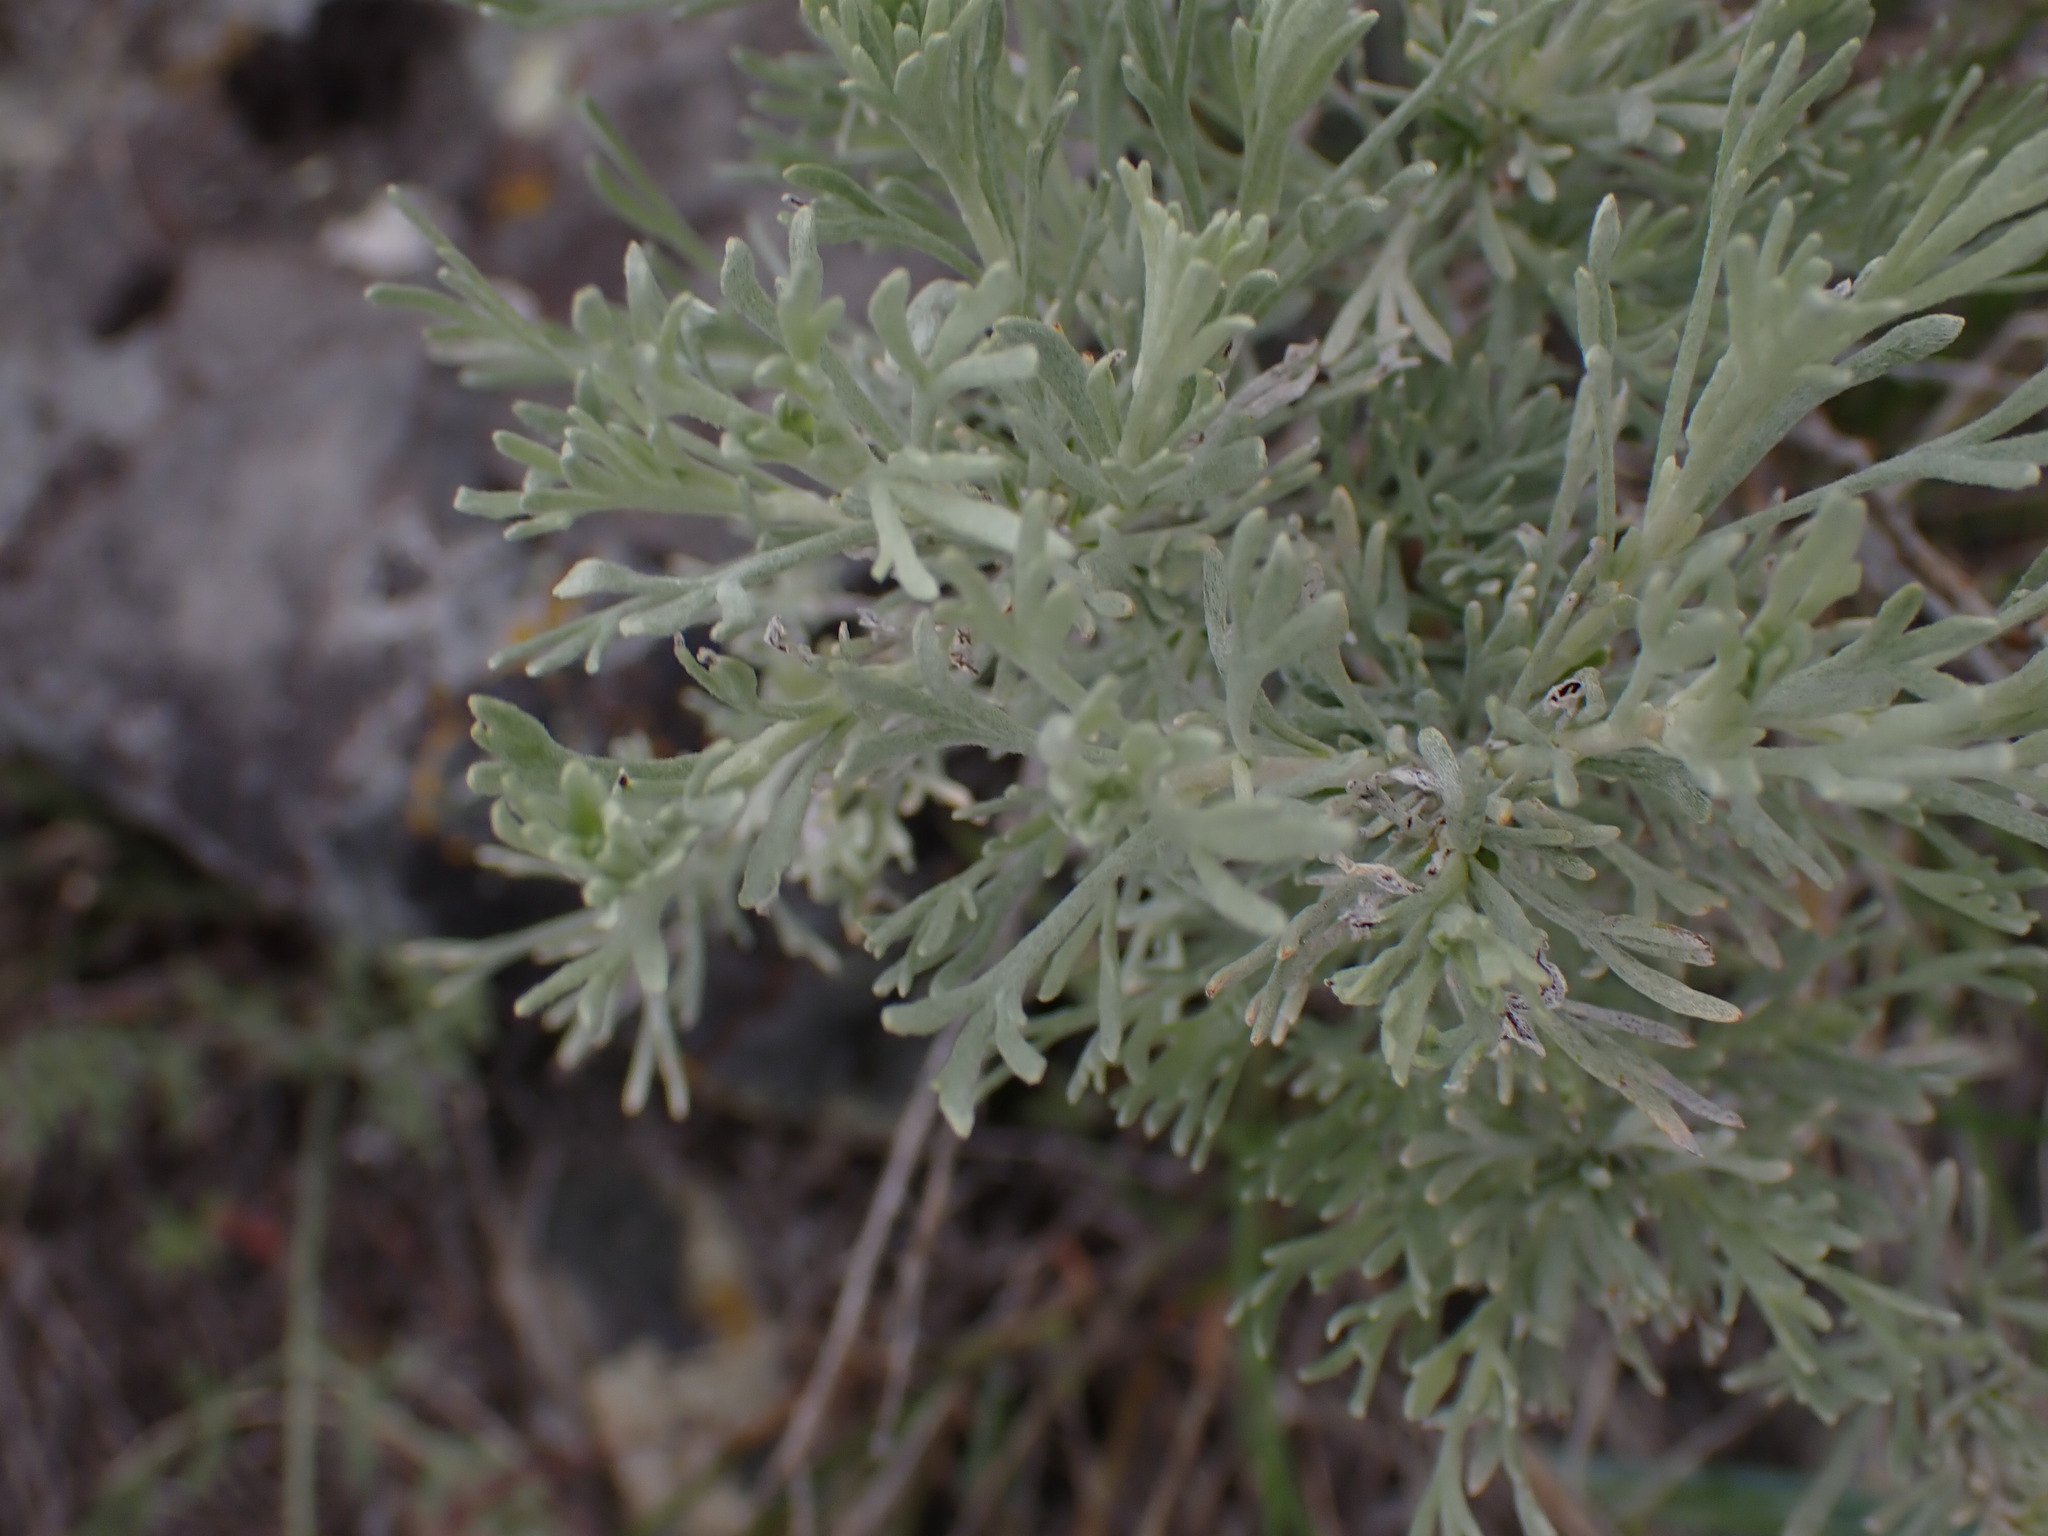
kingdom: Plantae
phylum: Tracheophyta
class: Magnoliopsida
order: Asterales
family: Asteraceae
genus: Artemisia
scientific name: Artemisia tripartita
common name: Three-tip sagebrush
